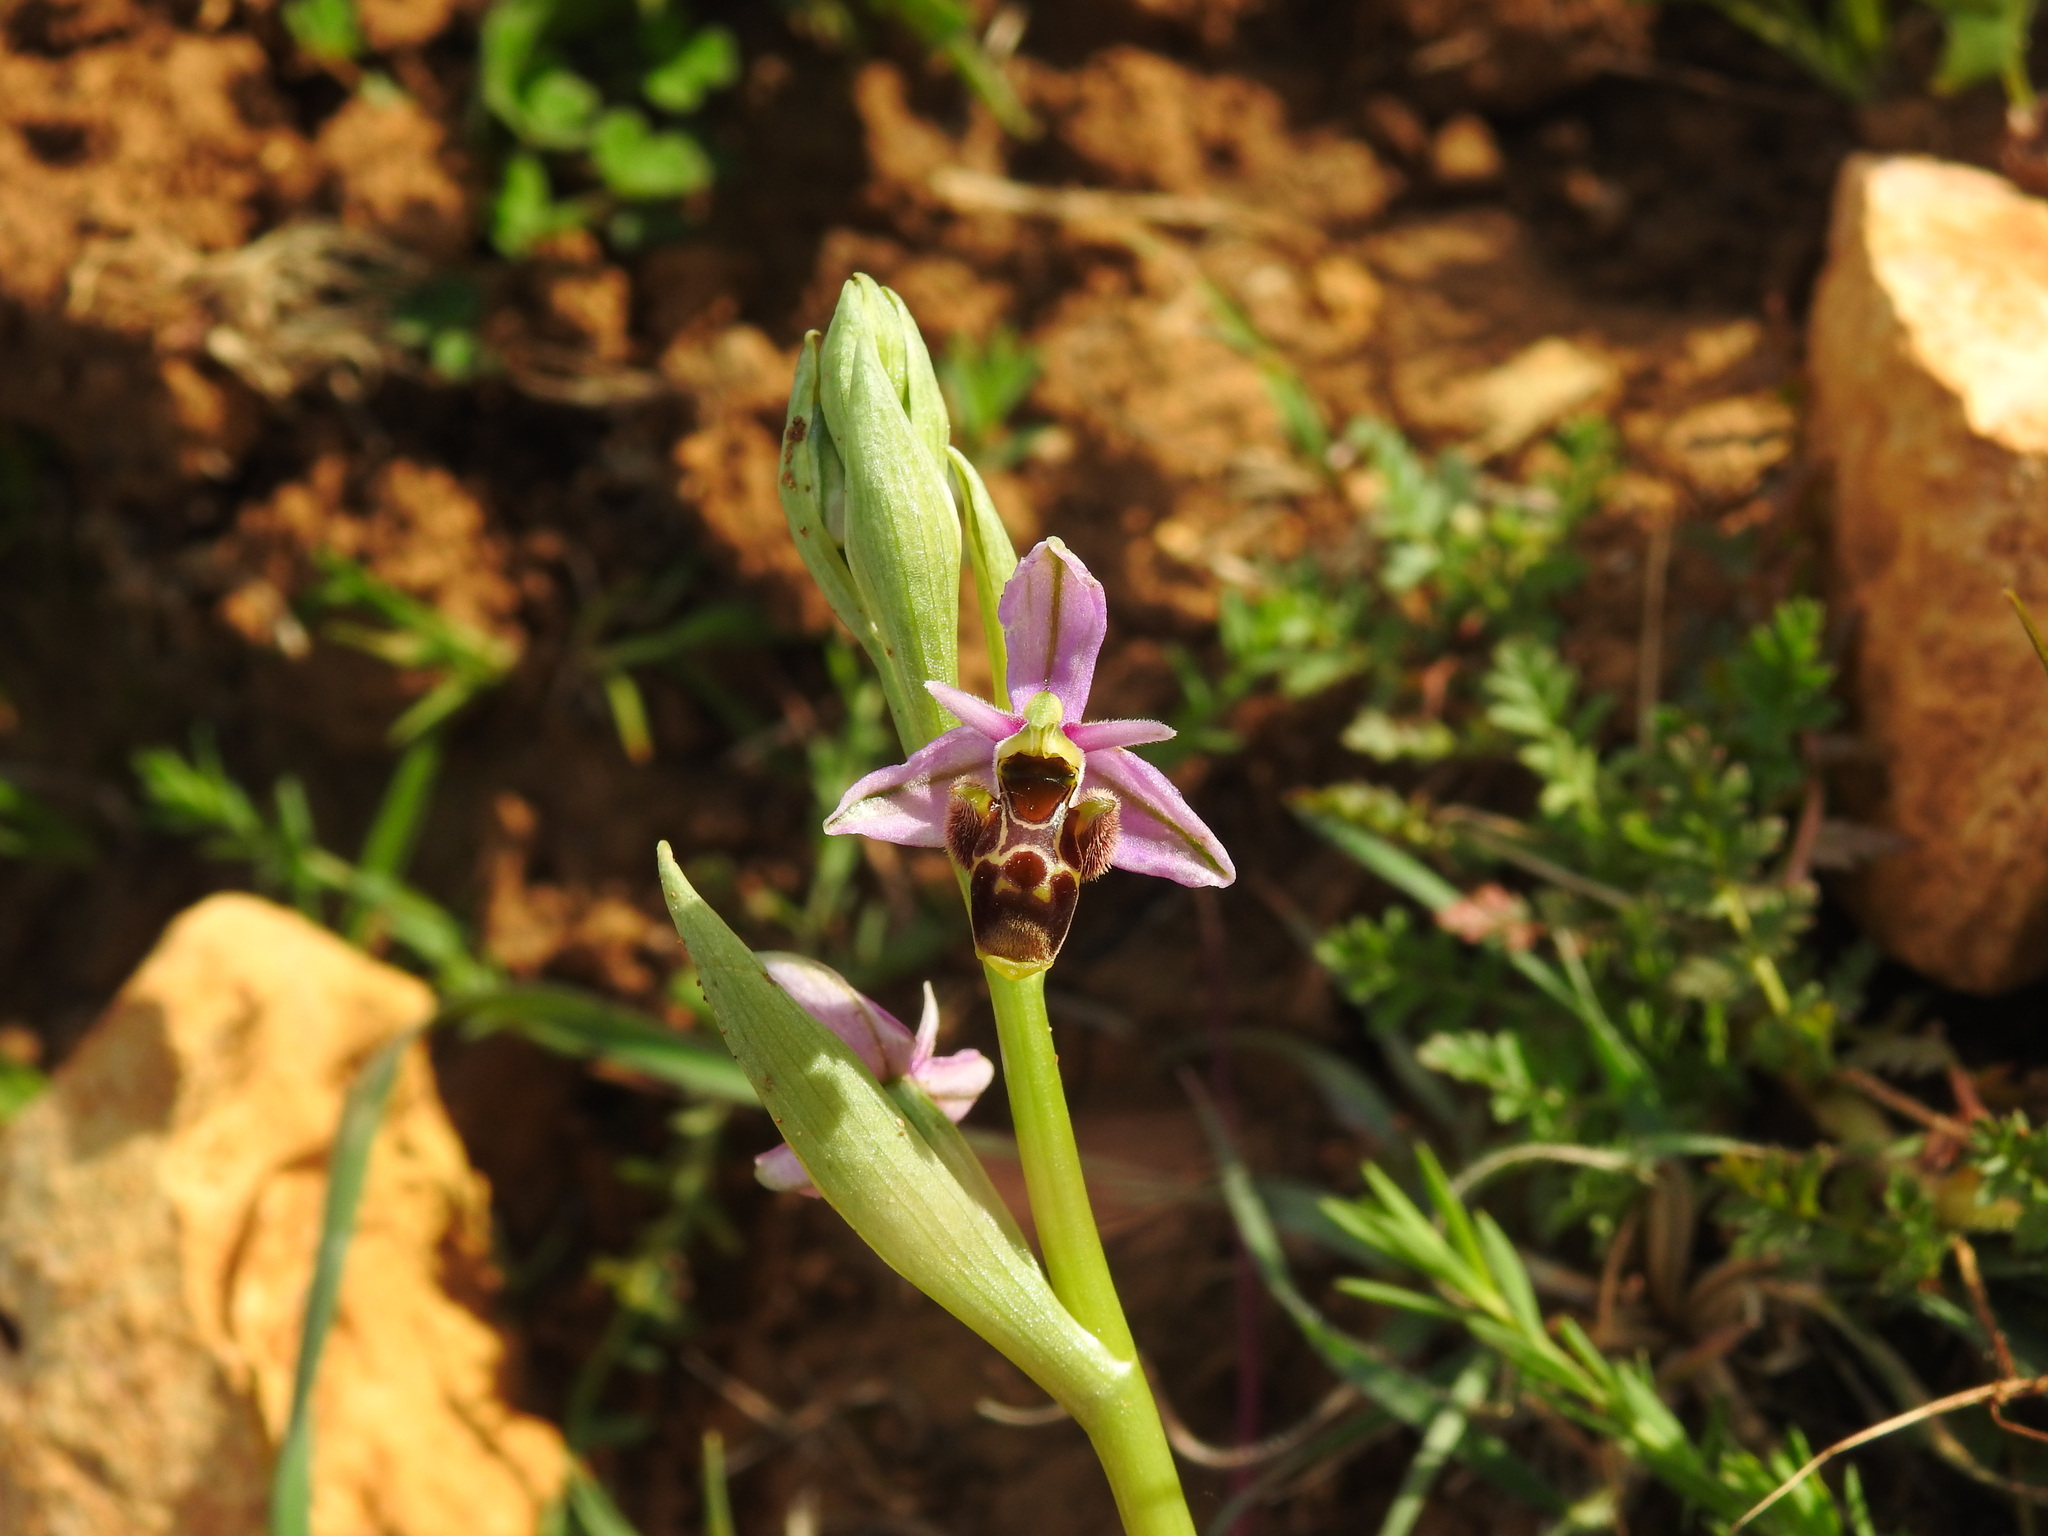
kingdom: Plantae
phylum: Tracheophyta
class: Liliopsida
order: Asparagales
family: Orchidaceae
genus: Ophrys
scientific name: Ophrys scolopax
